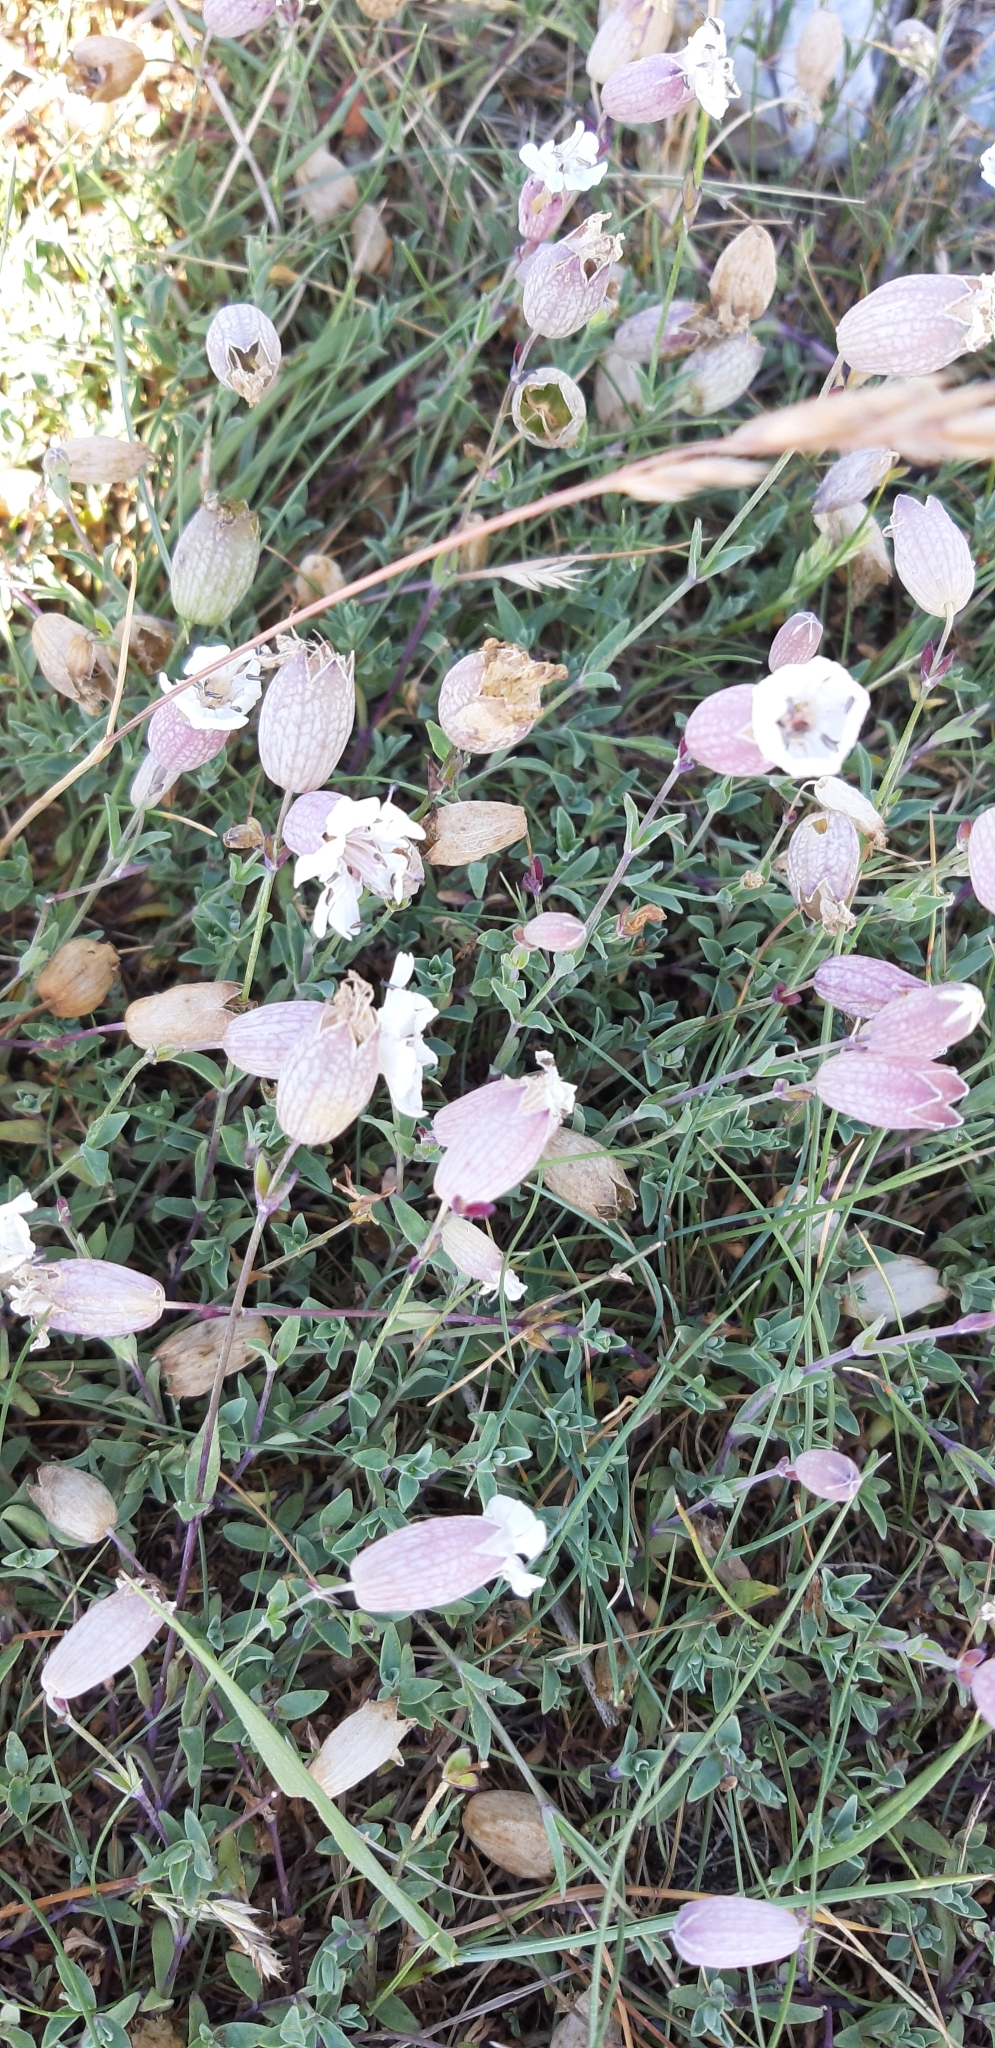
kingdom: Plantae
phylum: Tracheophyta
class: Magnoliopsida
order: Caryophyllales
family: Caryophyllaceae
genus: Silene
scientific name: Silene uniflora
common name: Sea campion
